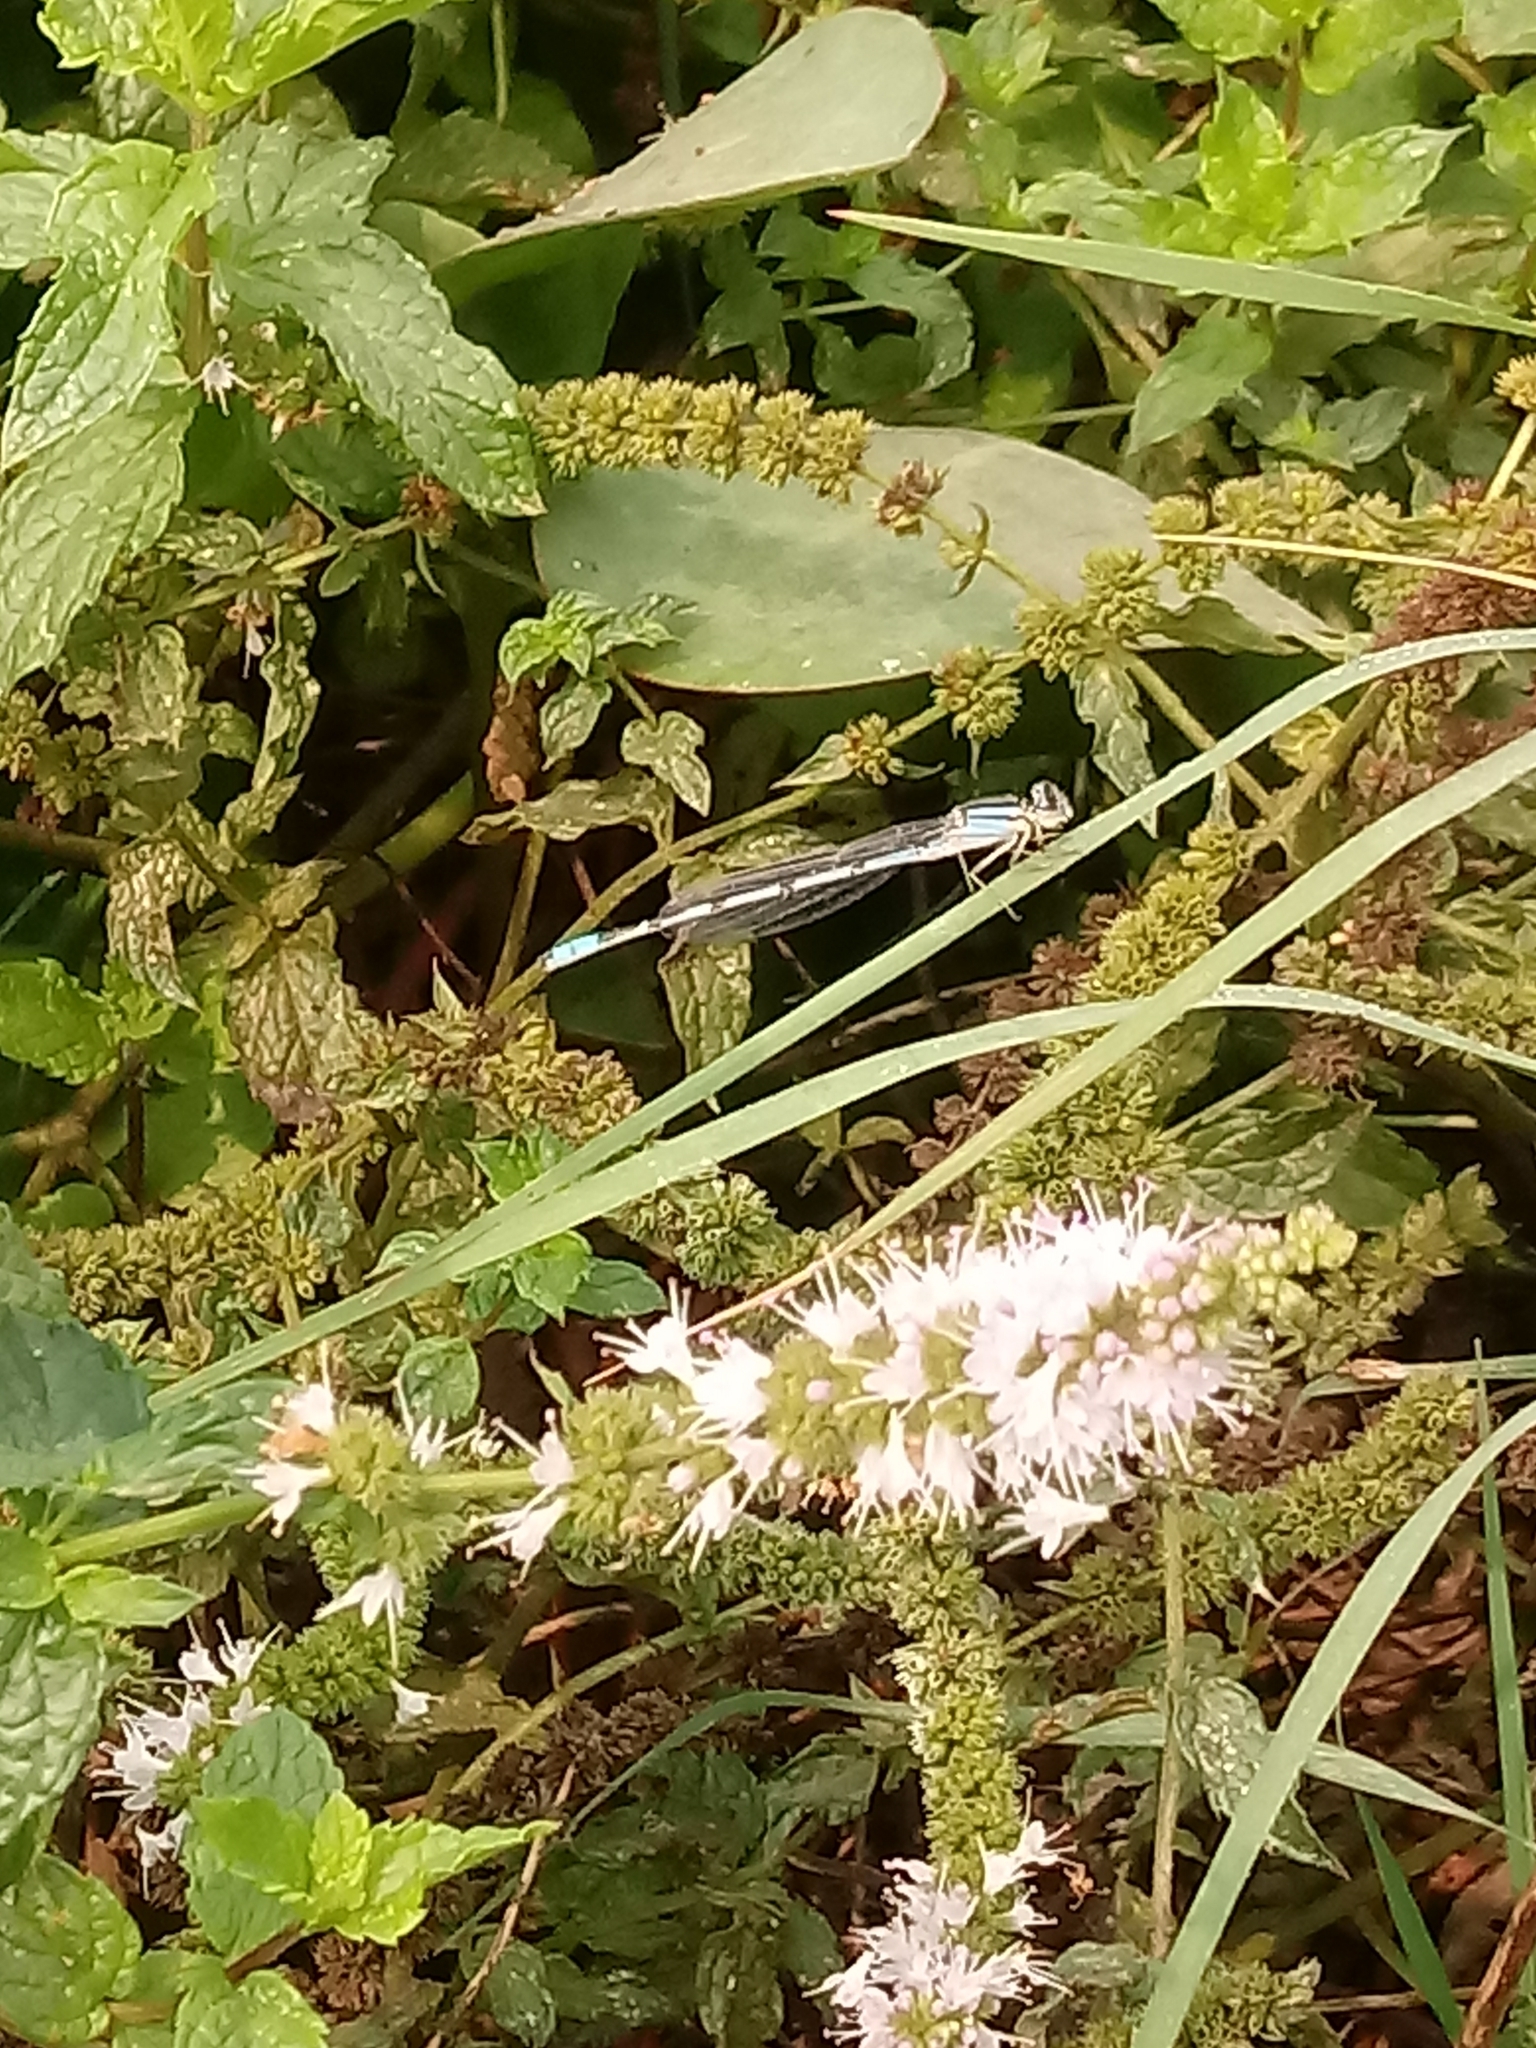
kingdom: Animalia
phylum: Arthropoda
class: Insecta
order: Odonata
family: Coenagrionidae
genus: Enallagma
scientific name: Enallagma civile
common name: Damselfly
